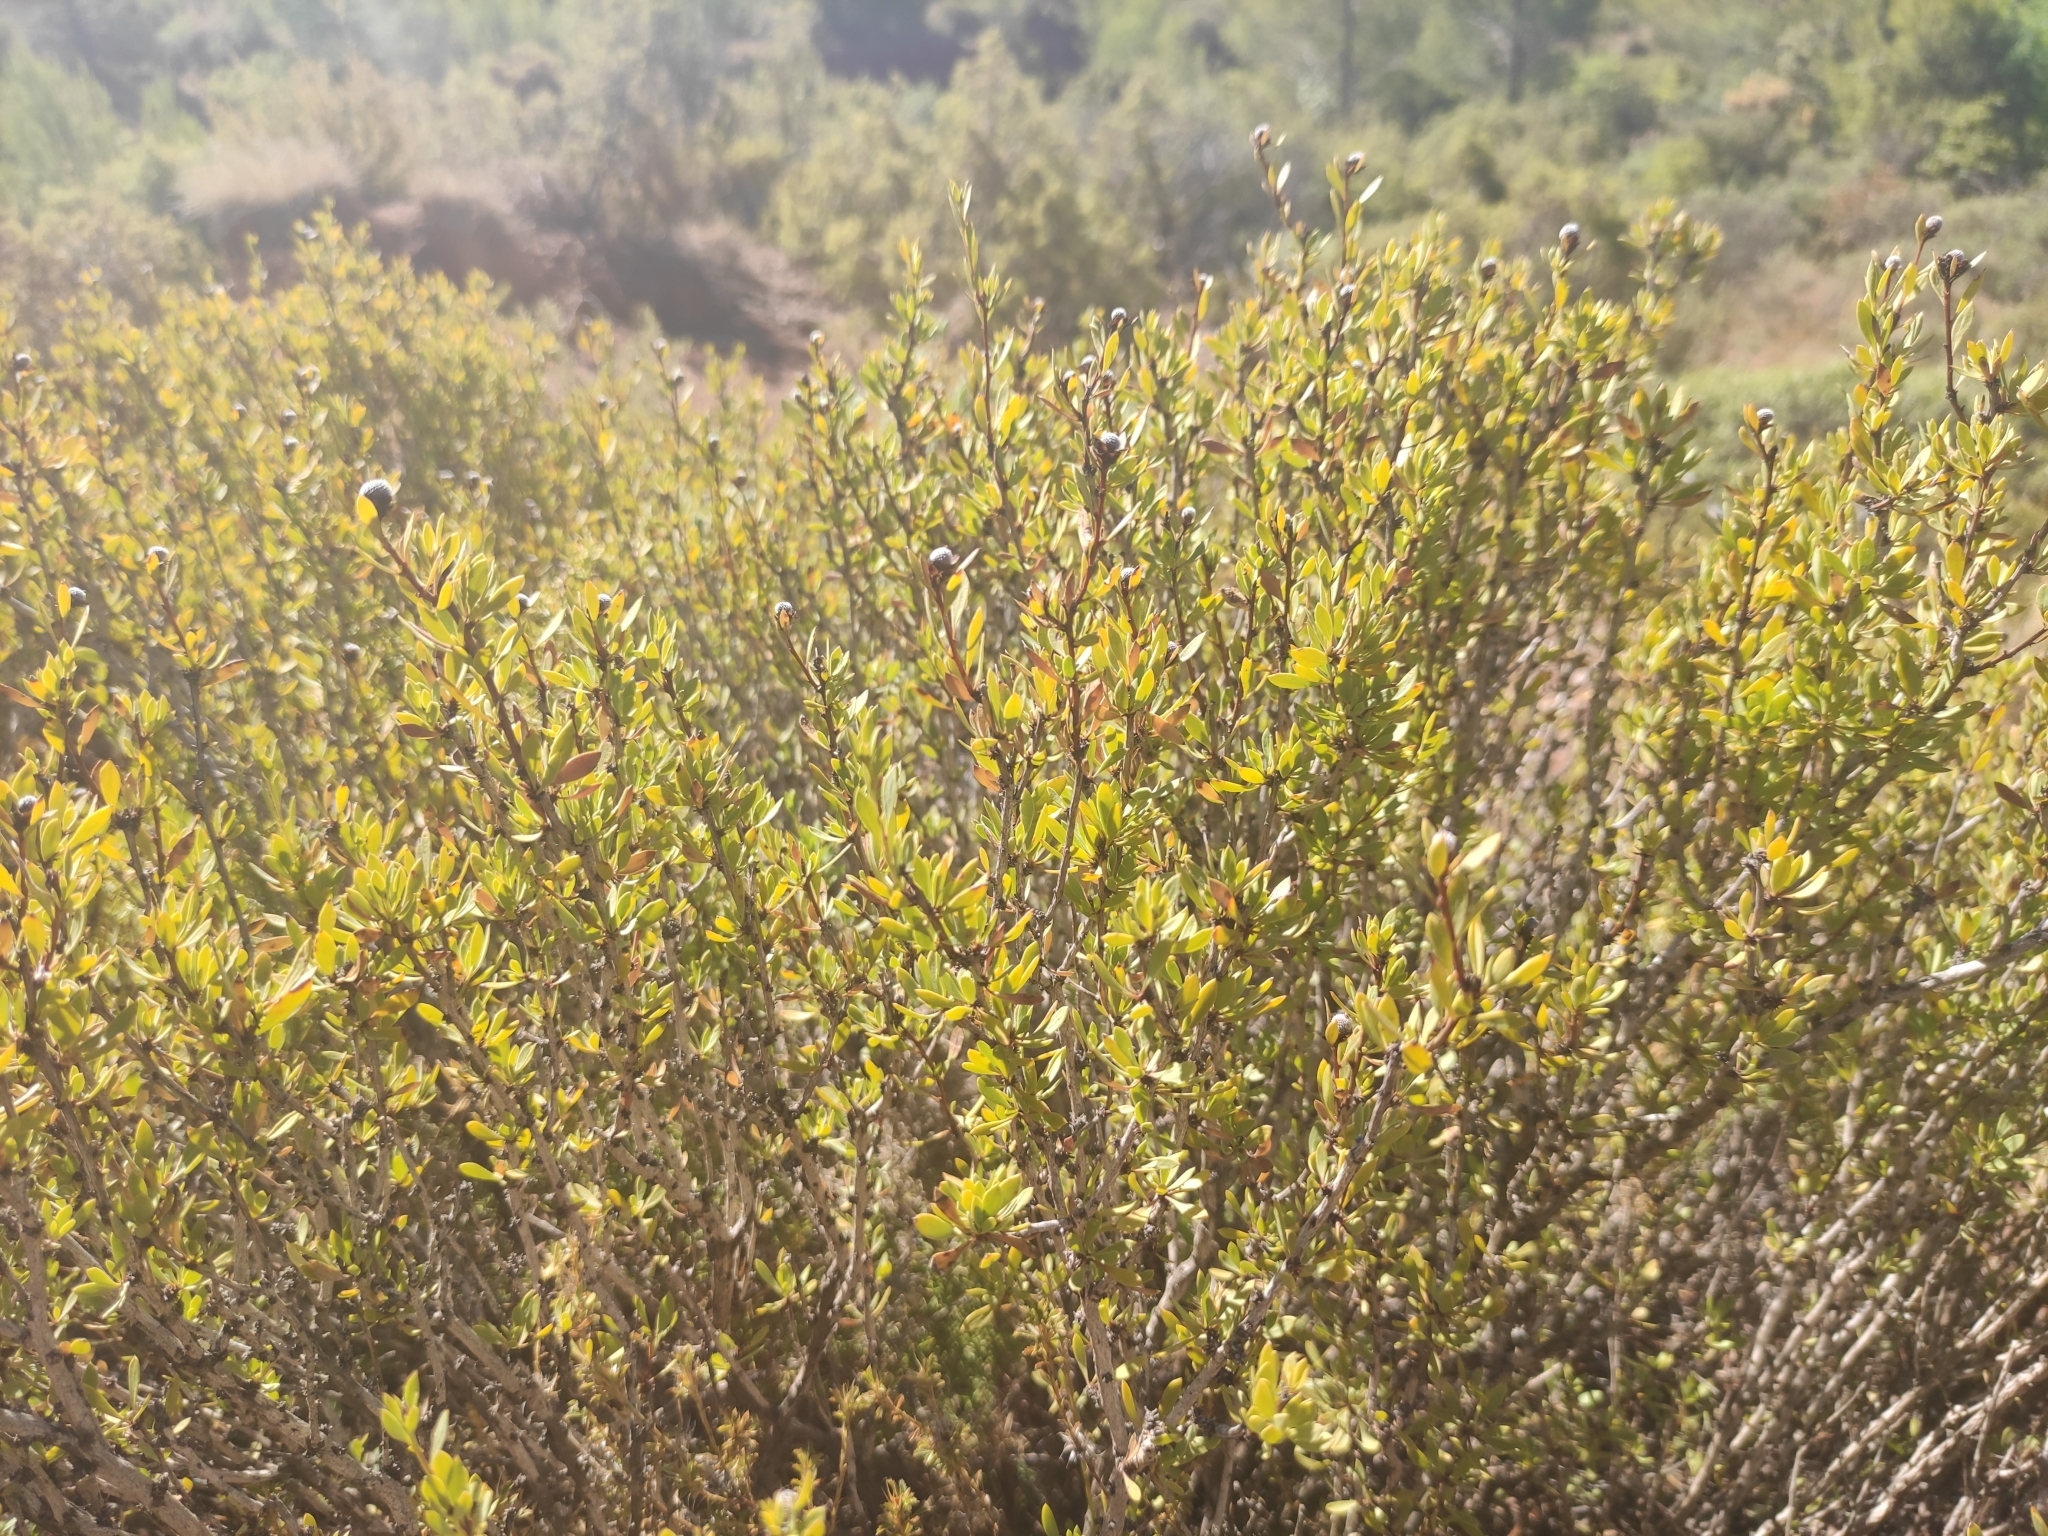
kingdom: Plantae
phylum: Tracheophyta
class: Magnoliopsida
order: Lamiales
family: Plantaginaceae
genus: Globularia
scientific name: Globularia alypum
